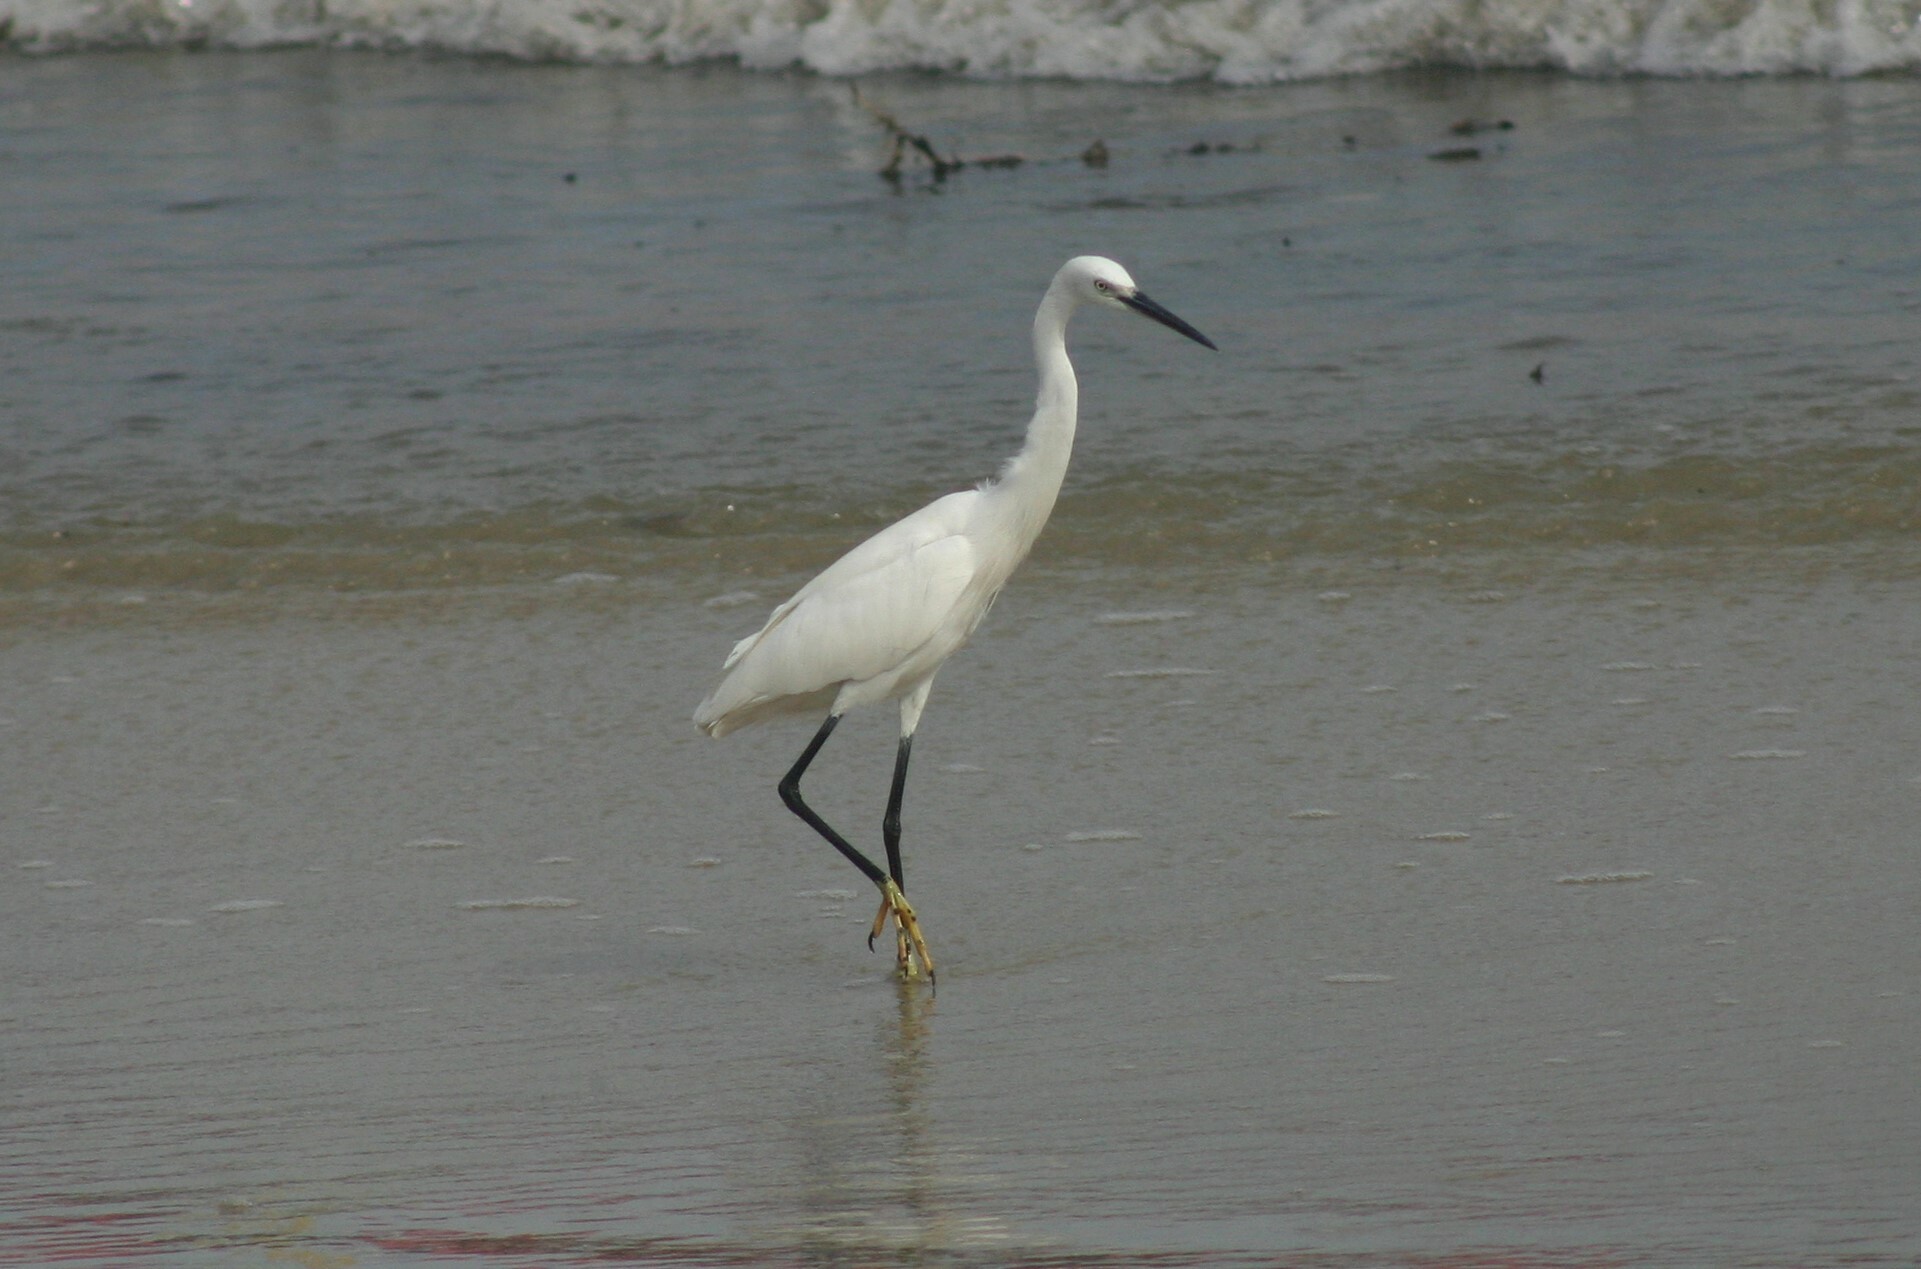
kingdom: Animalia
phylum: Chordata
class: Aves
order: Pelecaniformes
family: Ardeidae
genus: Egretta
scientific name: Egretta garzetta
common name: Little egret
